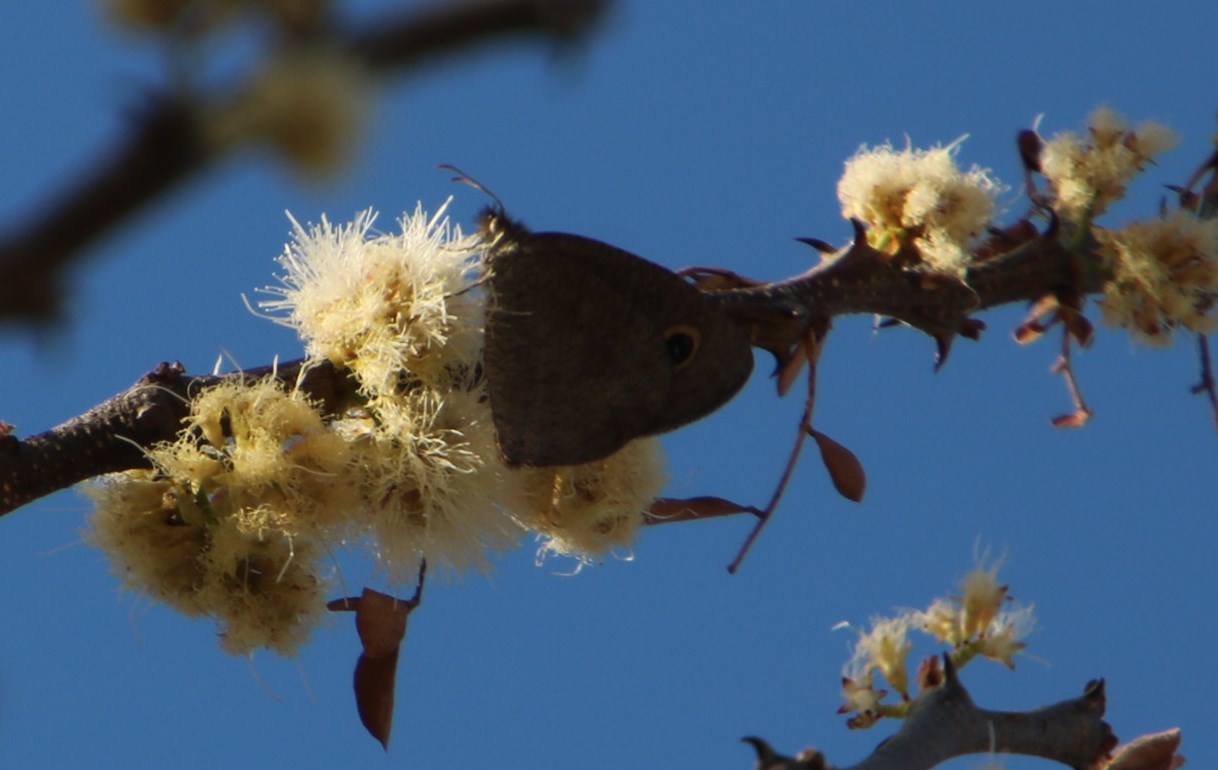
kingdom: Animalia
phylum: Arthropoda
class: Insecta
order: Lepidoptera
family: Nymphalidae
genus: Ypthima
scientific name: Ypthima
